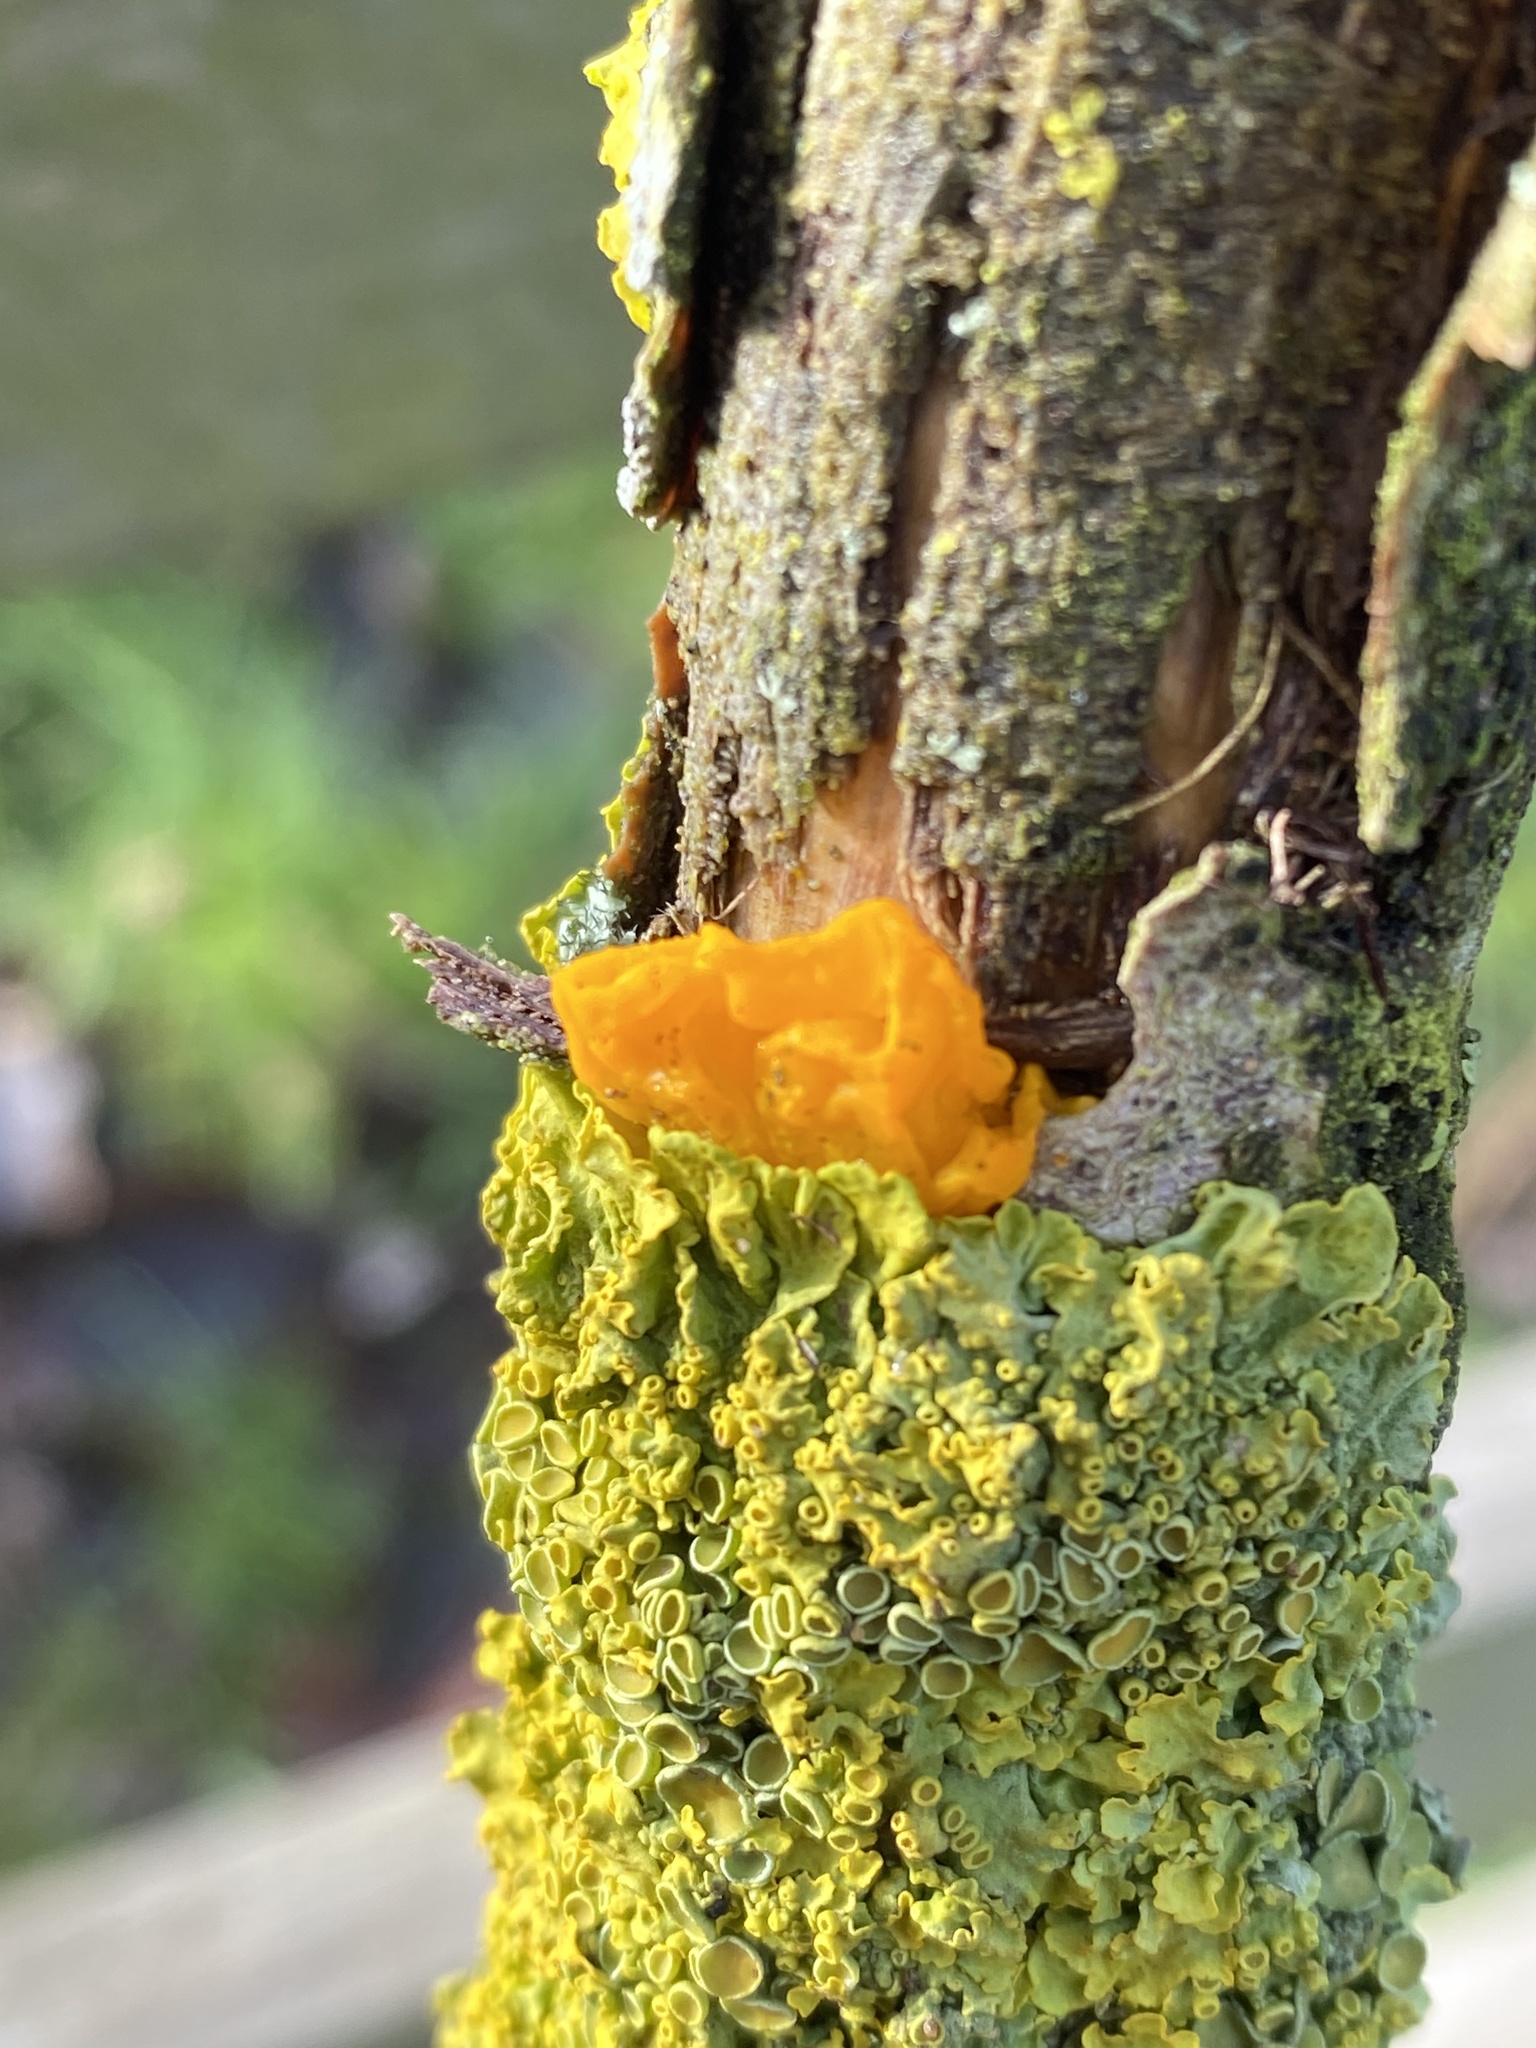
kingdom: Fungi
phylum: Basidiomycota
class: Tremellomycetes
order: Tremellales
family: Tremellaceae
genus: Tremella
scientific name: Tremella mesenterica
